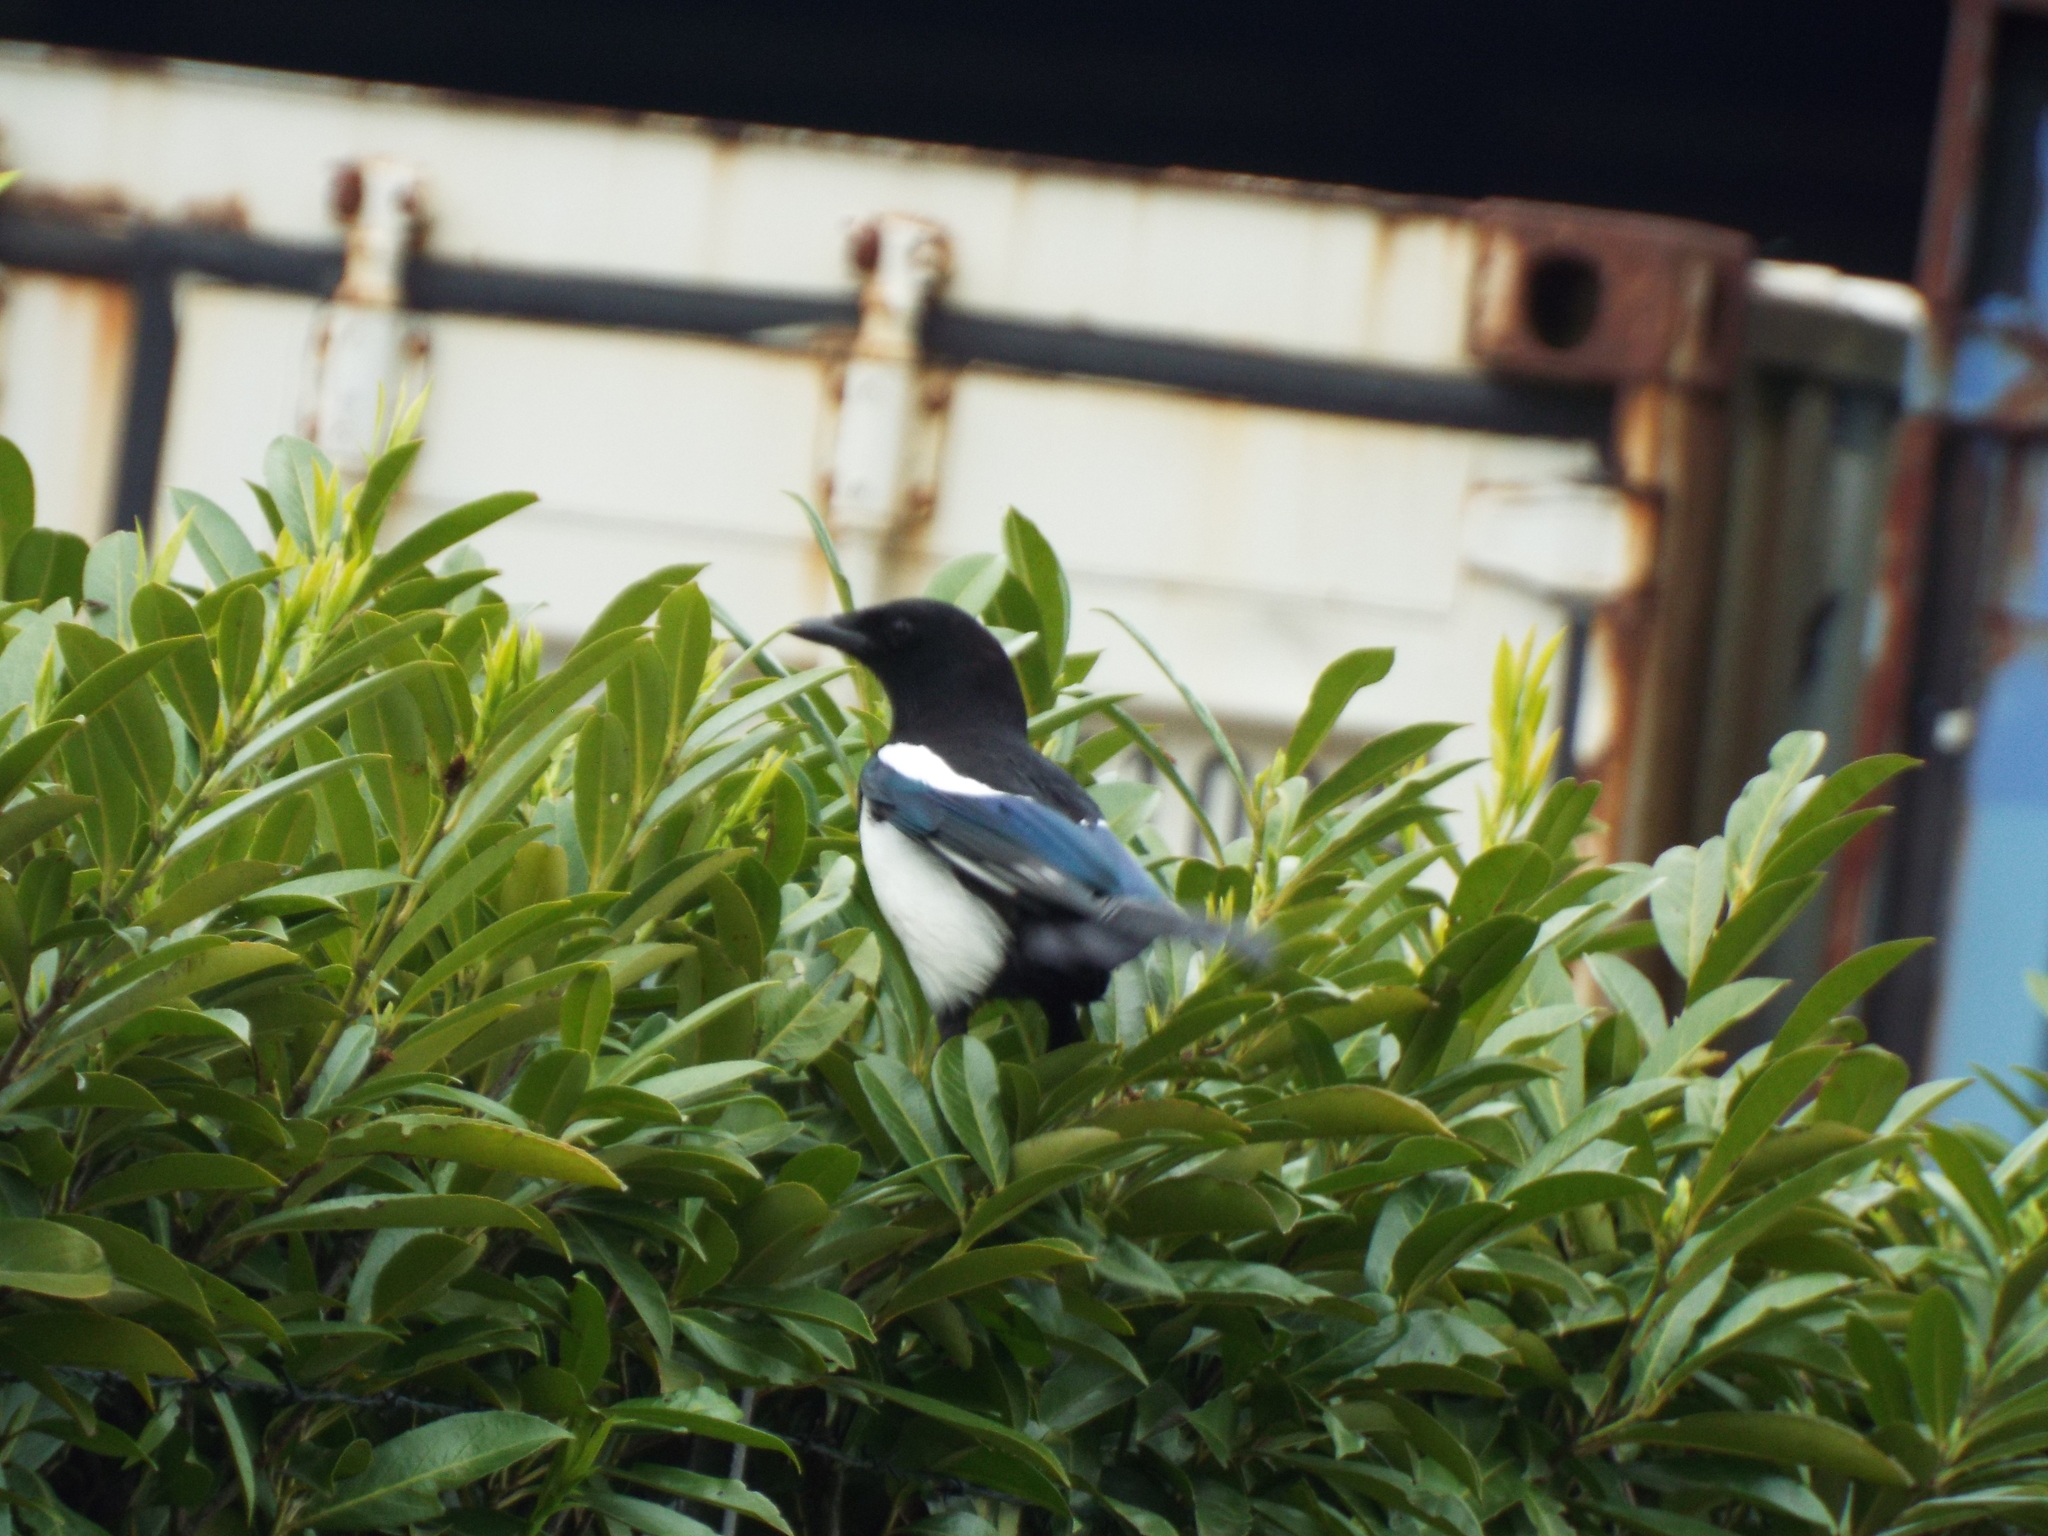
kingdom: Animalia
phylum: Chordata
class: Aves
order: Passeriformes
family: Corvidae
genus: Pica
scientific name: Pica pica
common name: Eurasian magpie
